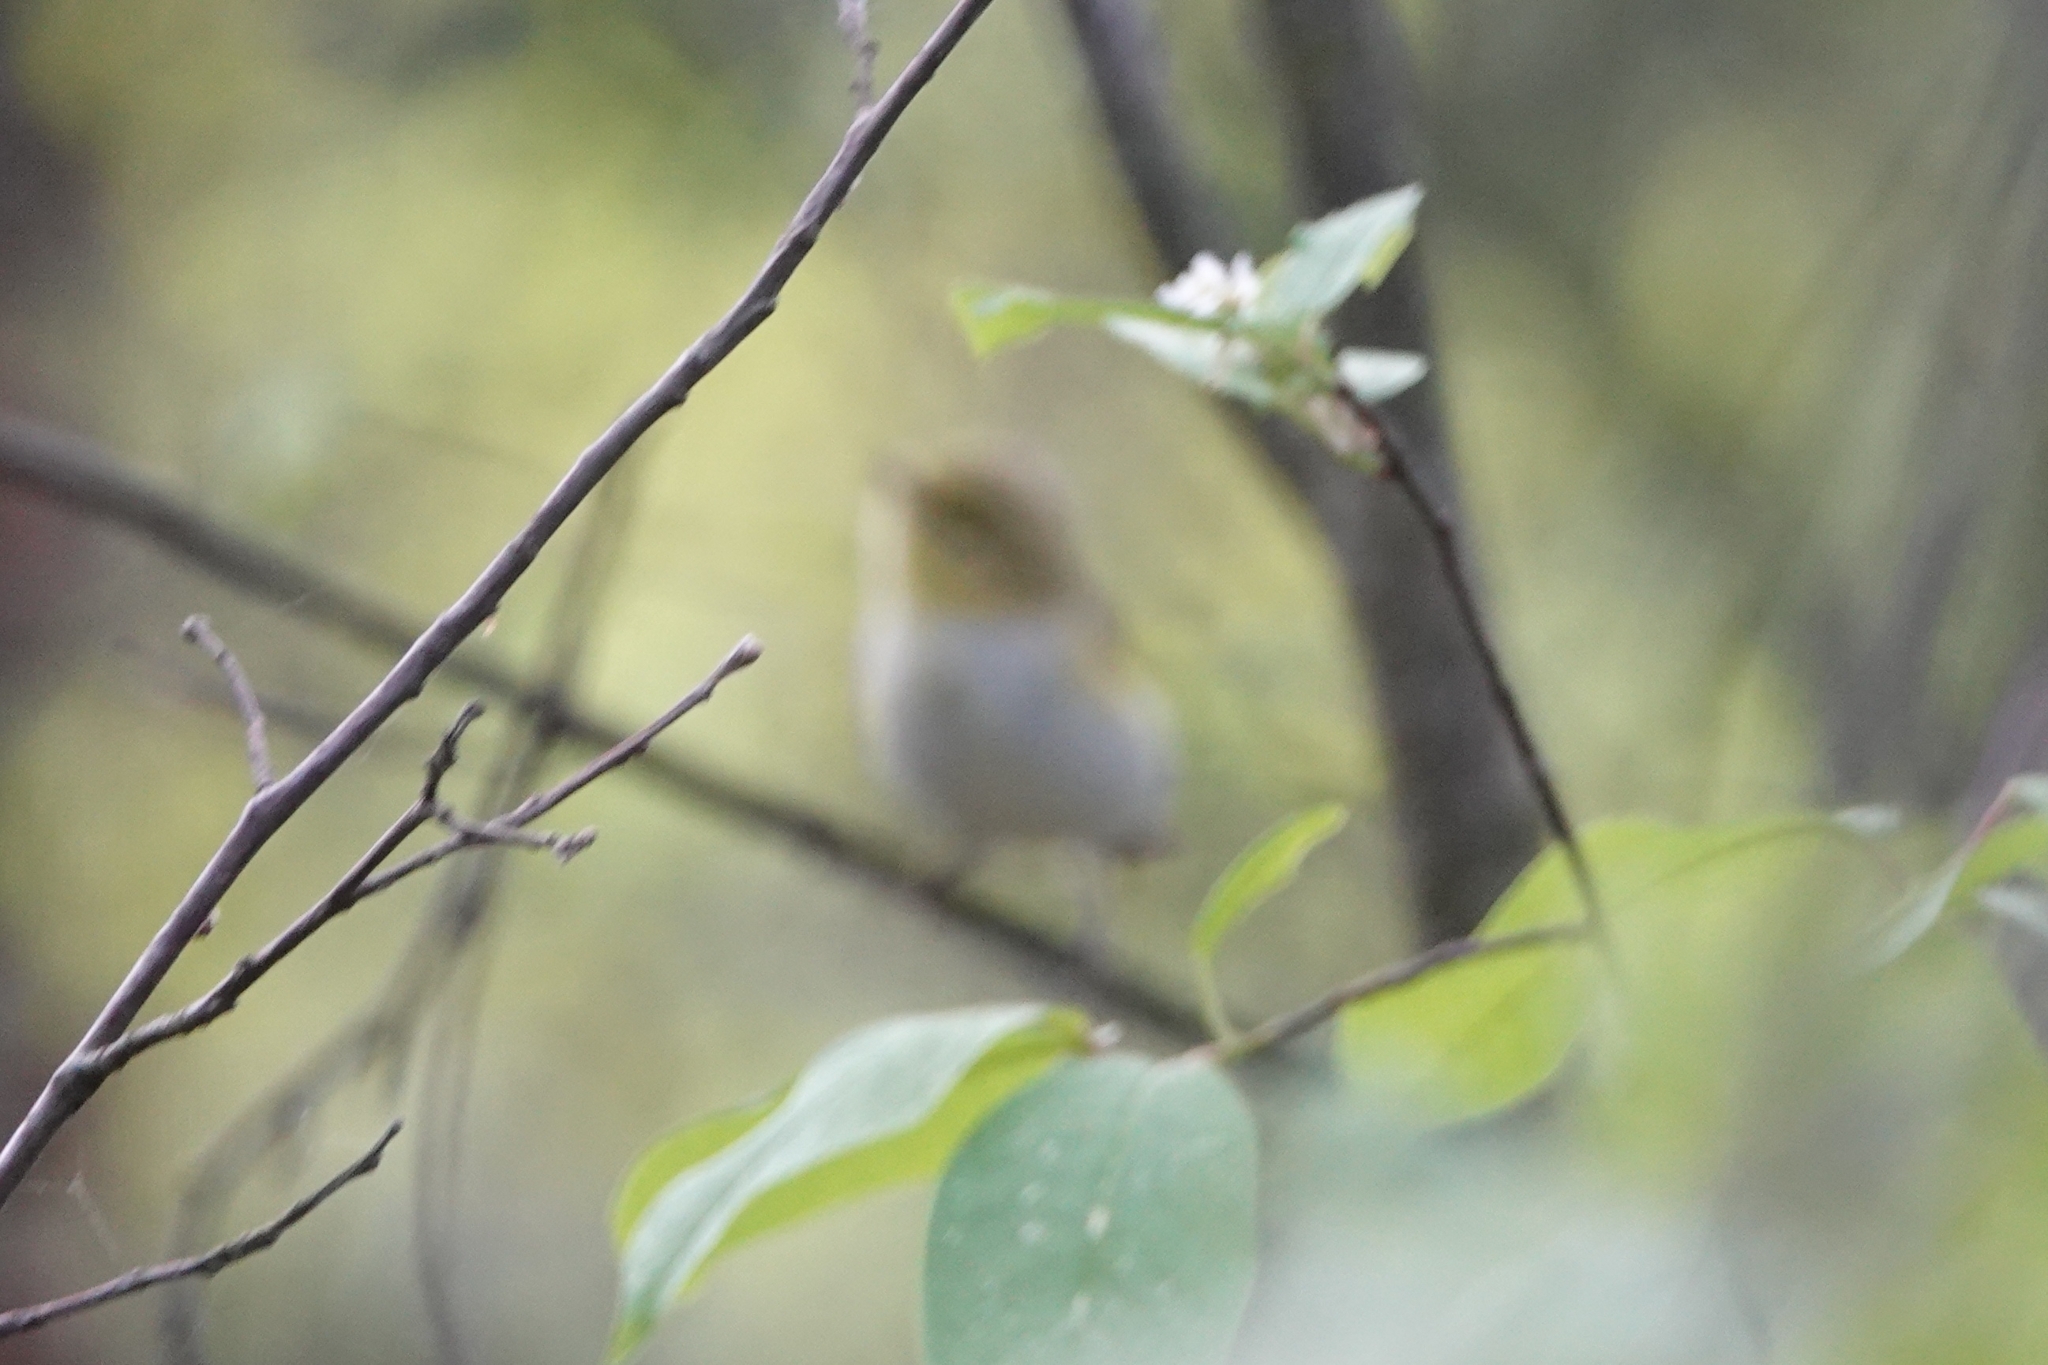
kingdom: Animalia
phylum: Chordata
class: Aves
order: Passeriformes
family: Phylloscopidae
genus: Phylloscopus
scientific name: Phylloscopus sibillatrix
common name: Wood warbler
